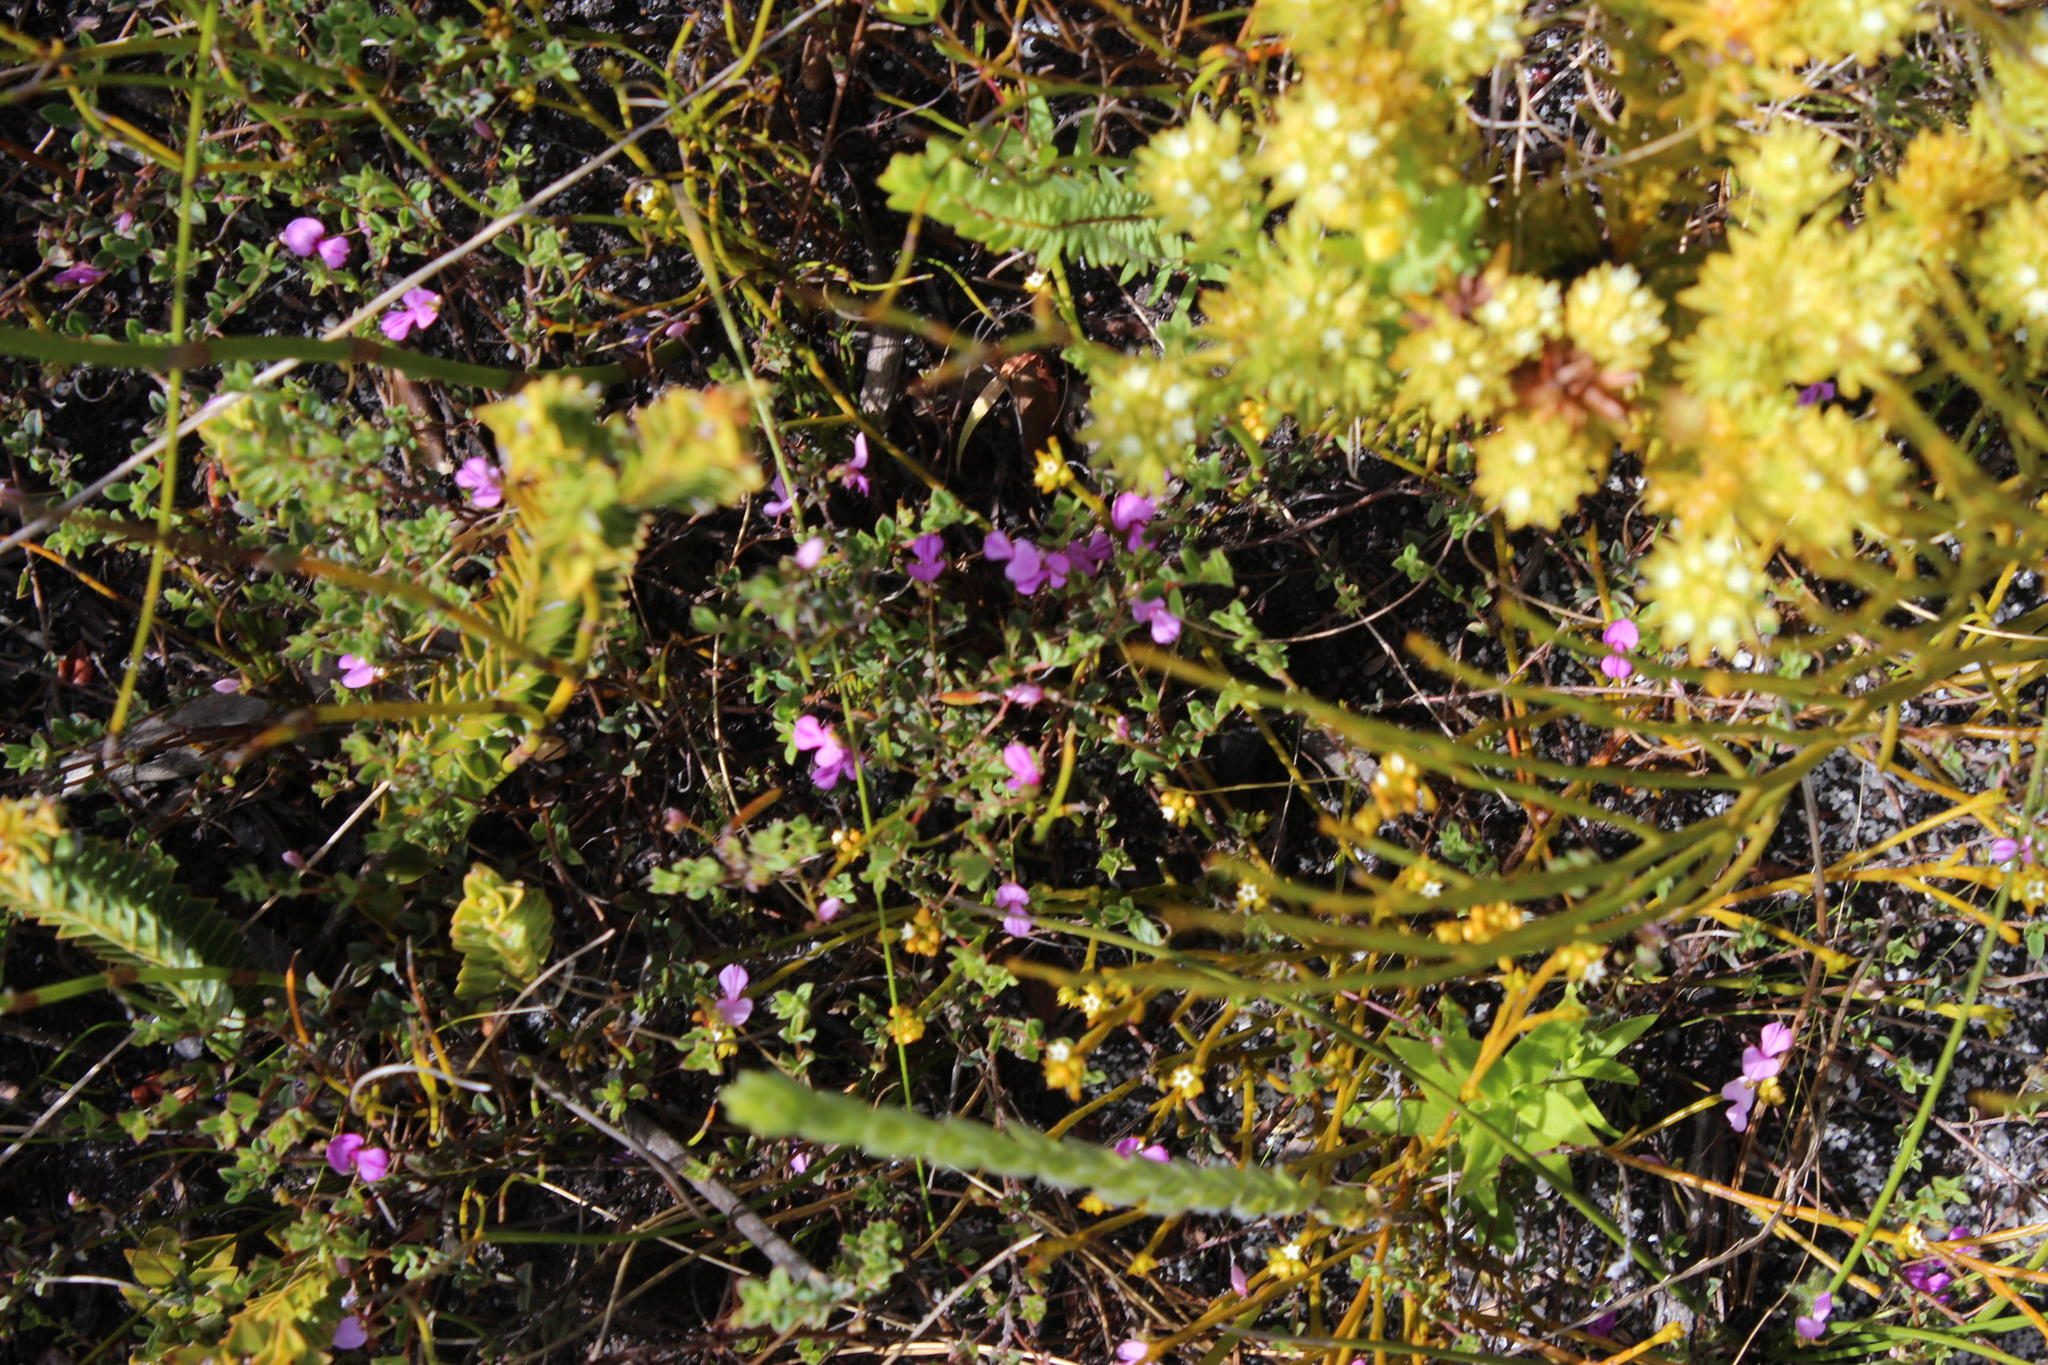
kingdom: Plantae
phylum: Tracheophyta
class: Magnoliopsida
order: Fabales
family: Fabaceae
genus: Indigofera
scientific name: Indigofera sarmentosa
